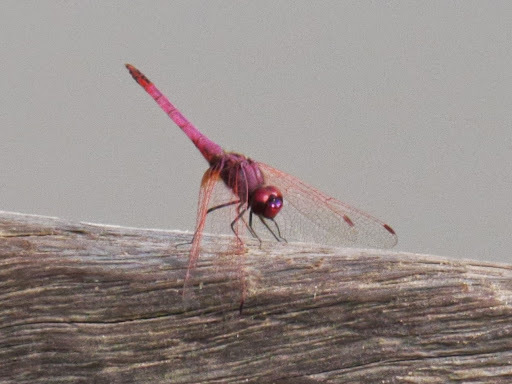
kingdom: Animalia
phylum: Arthropoda
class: Insecta
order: Odonata
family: Libellulidae
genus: Trithemis
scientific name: Trithemis annulata
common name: Violet dropwing
